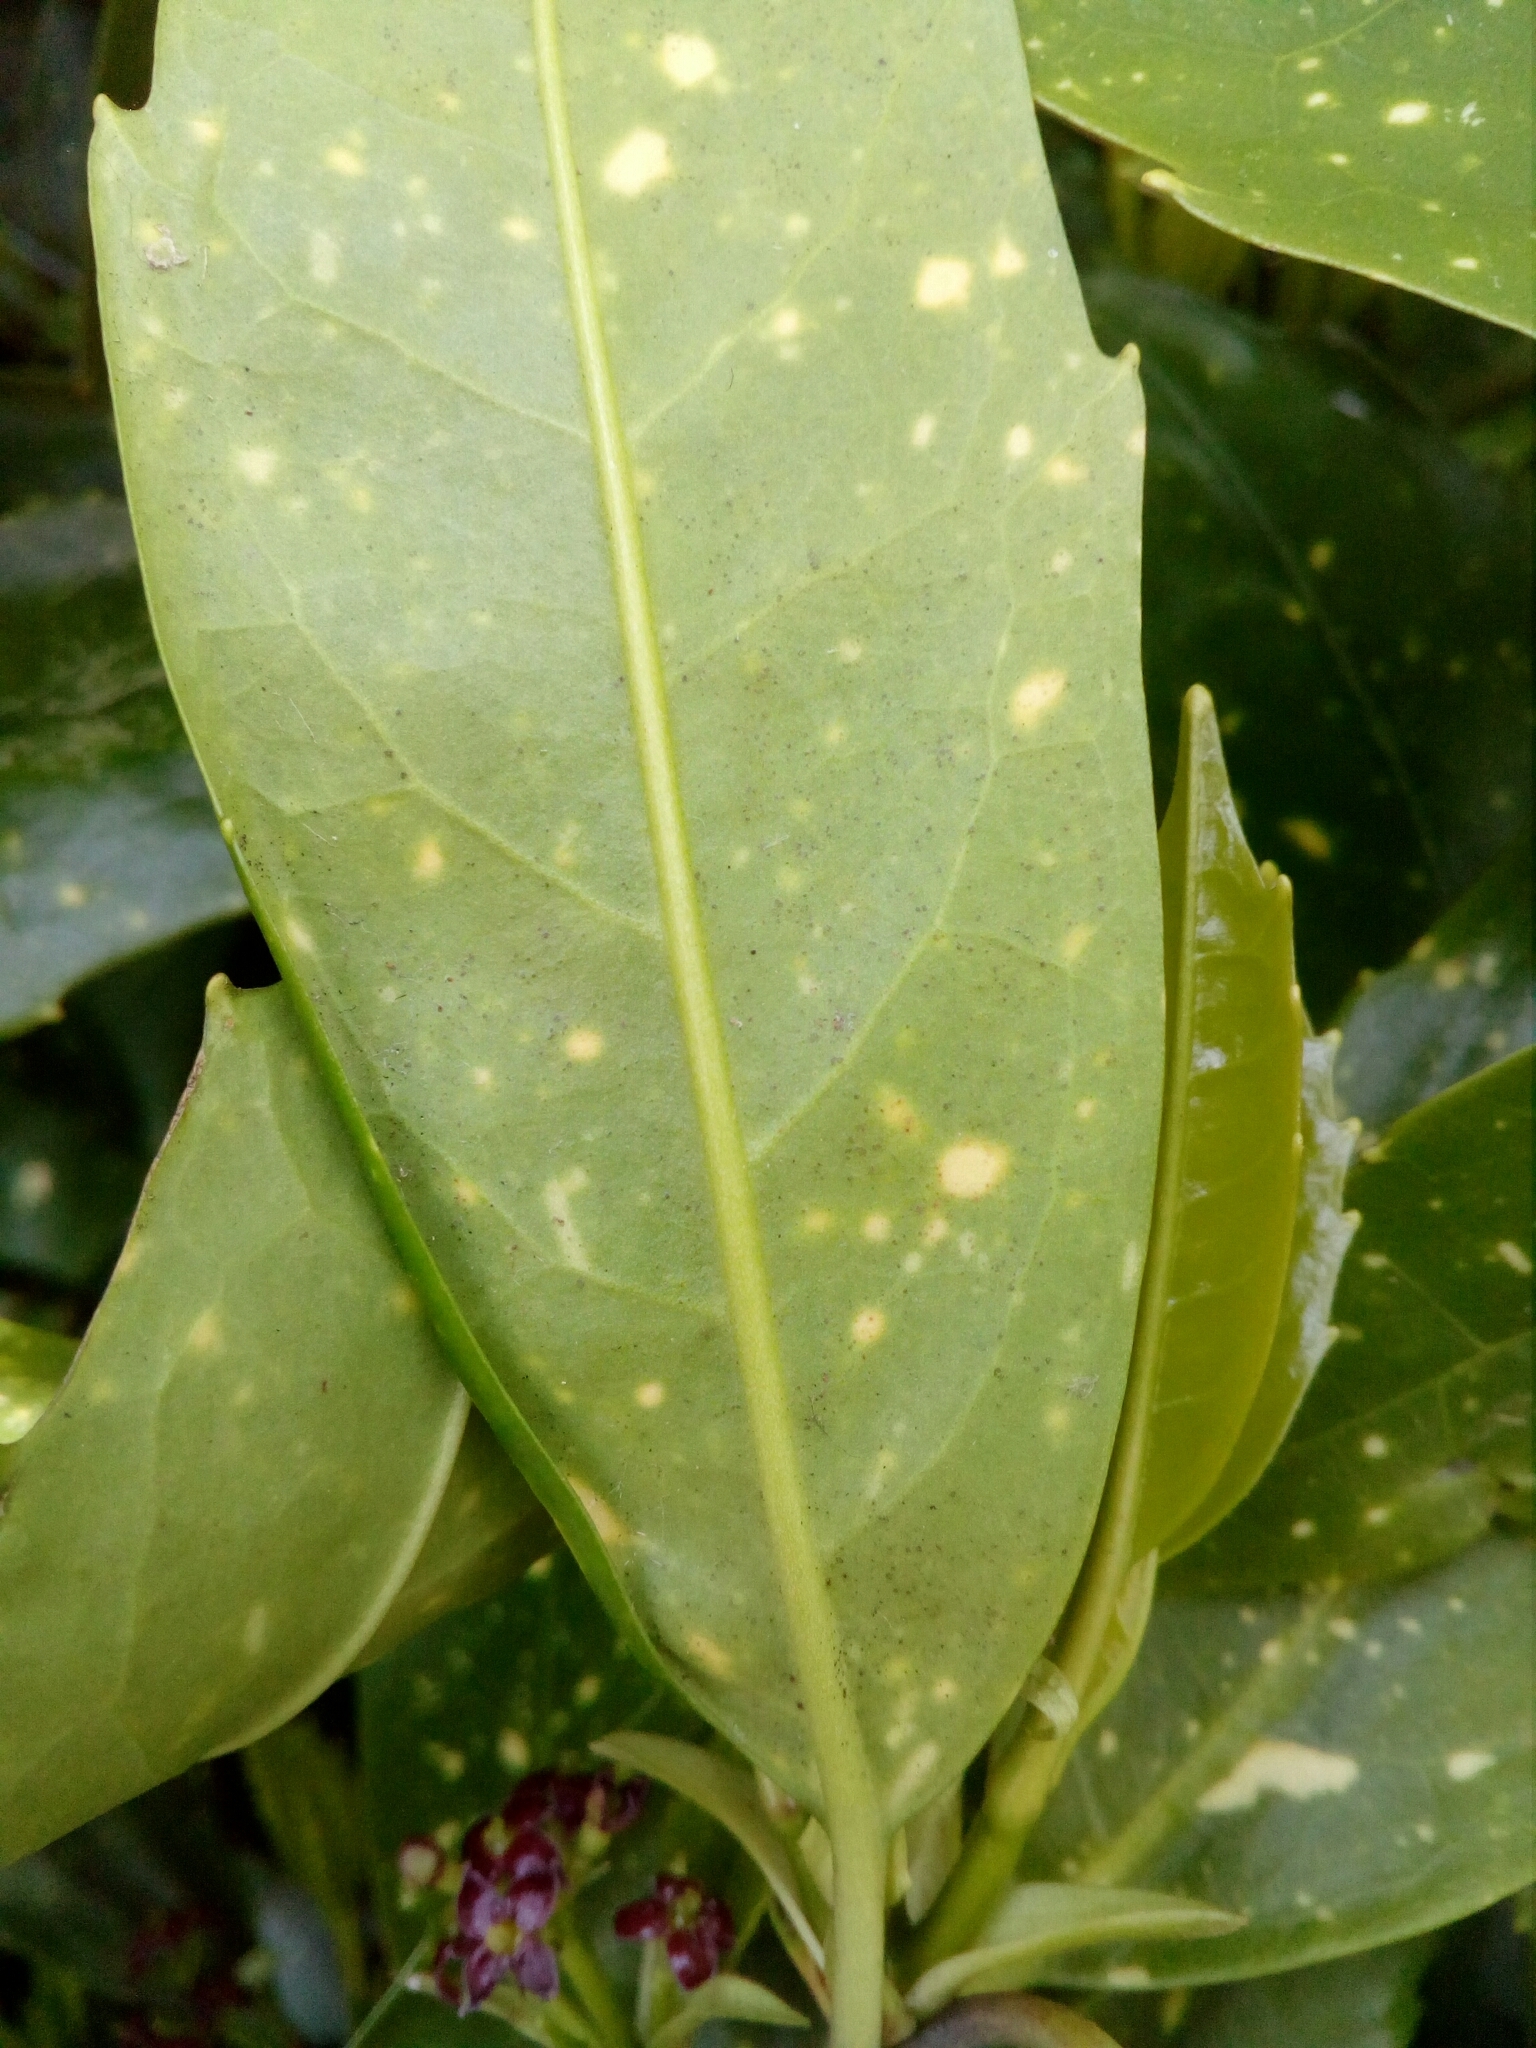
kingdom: Plantae
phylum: Tracheophyta
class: Magnoliopsida
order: Garryales
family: Garryaceae
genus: Aucuba
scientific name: Aucuba japonica
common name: Spotted-laurel
